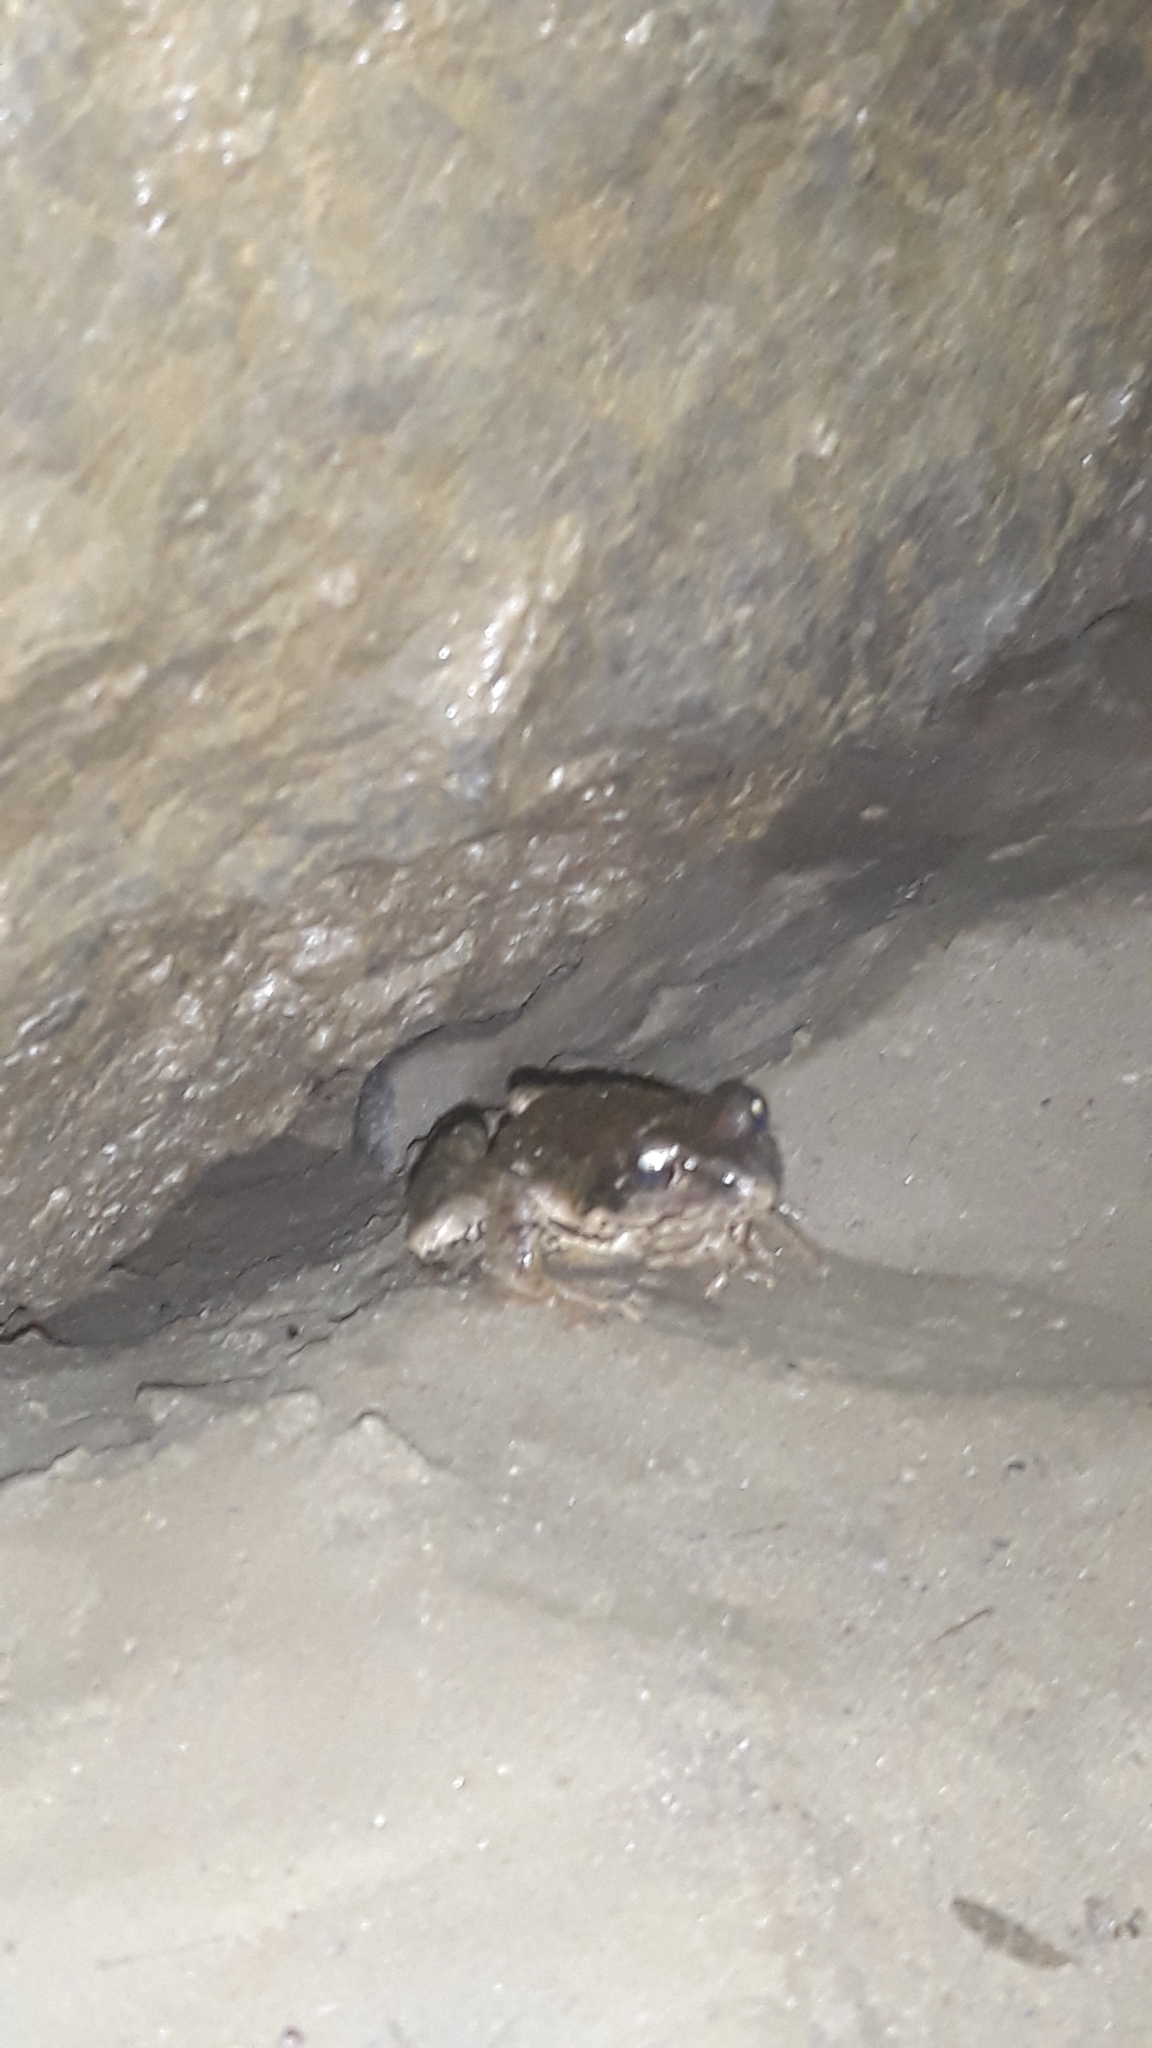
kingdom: Animalia
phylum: Chordata
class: Amphibia
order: Anura
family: Ranidae
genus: Rana
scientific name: Rana temporaria
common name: Common frog
